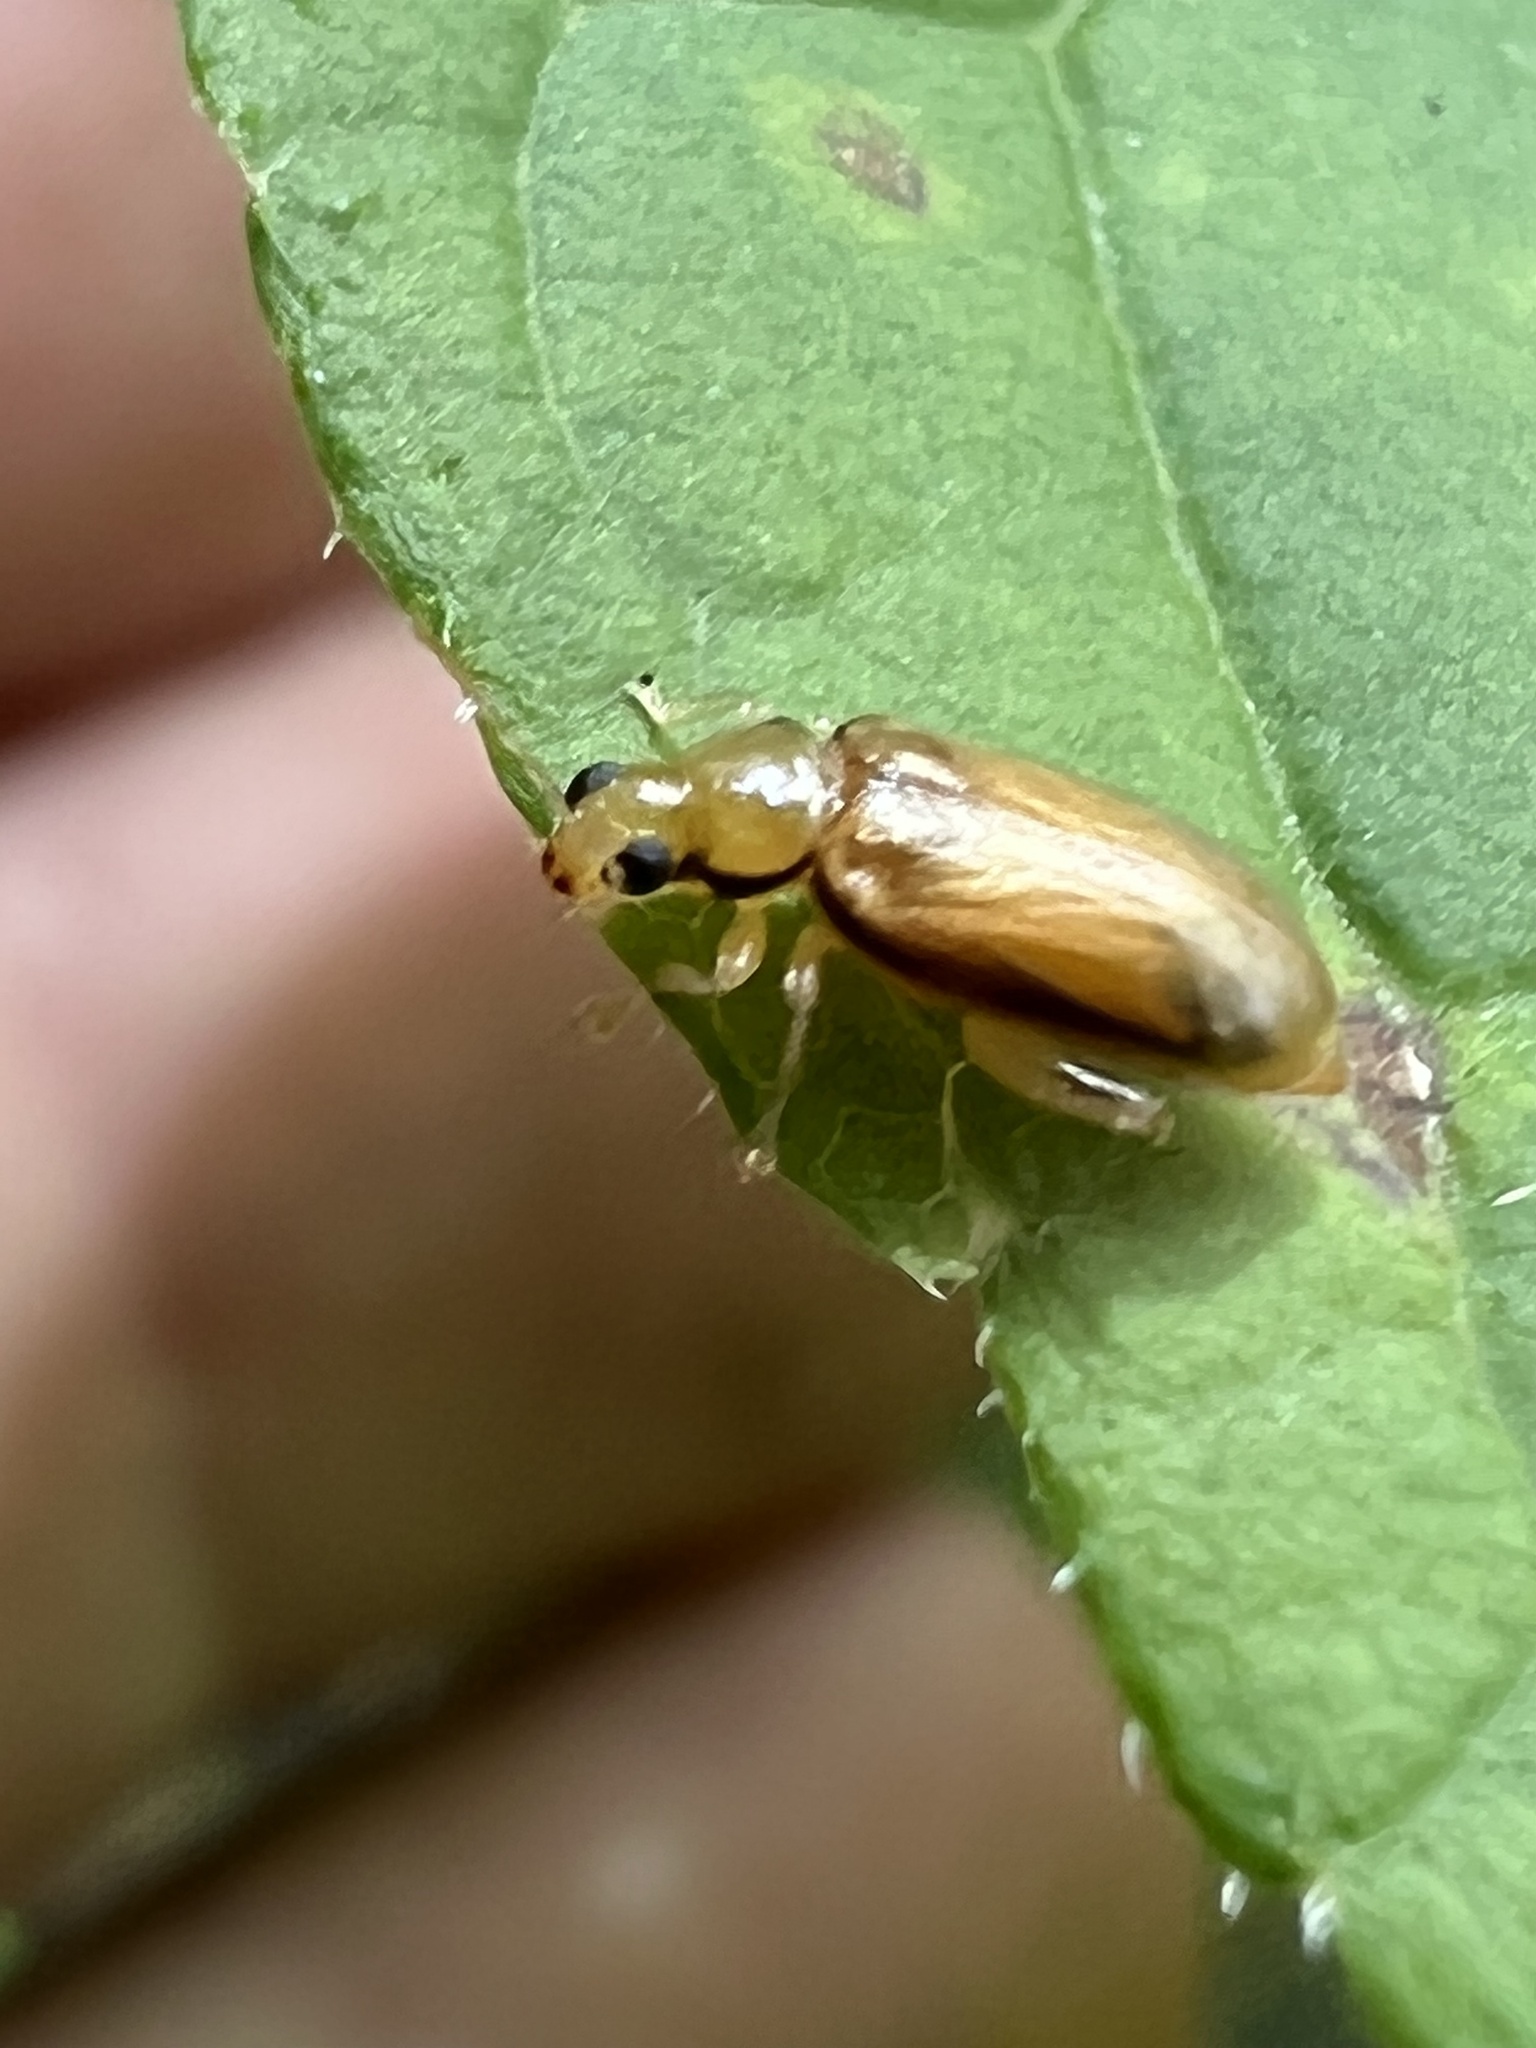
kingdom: Animalia
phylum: Arthropoda
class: Insecta
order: Coleoptera
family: Chrysomelidae
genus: Systena
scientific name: Systena marginalis
